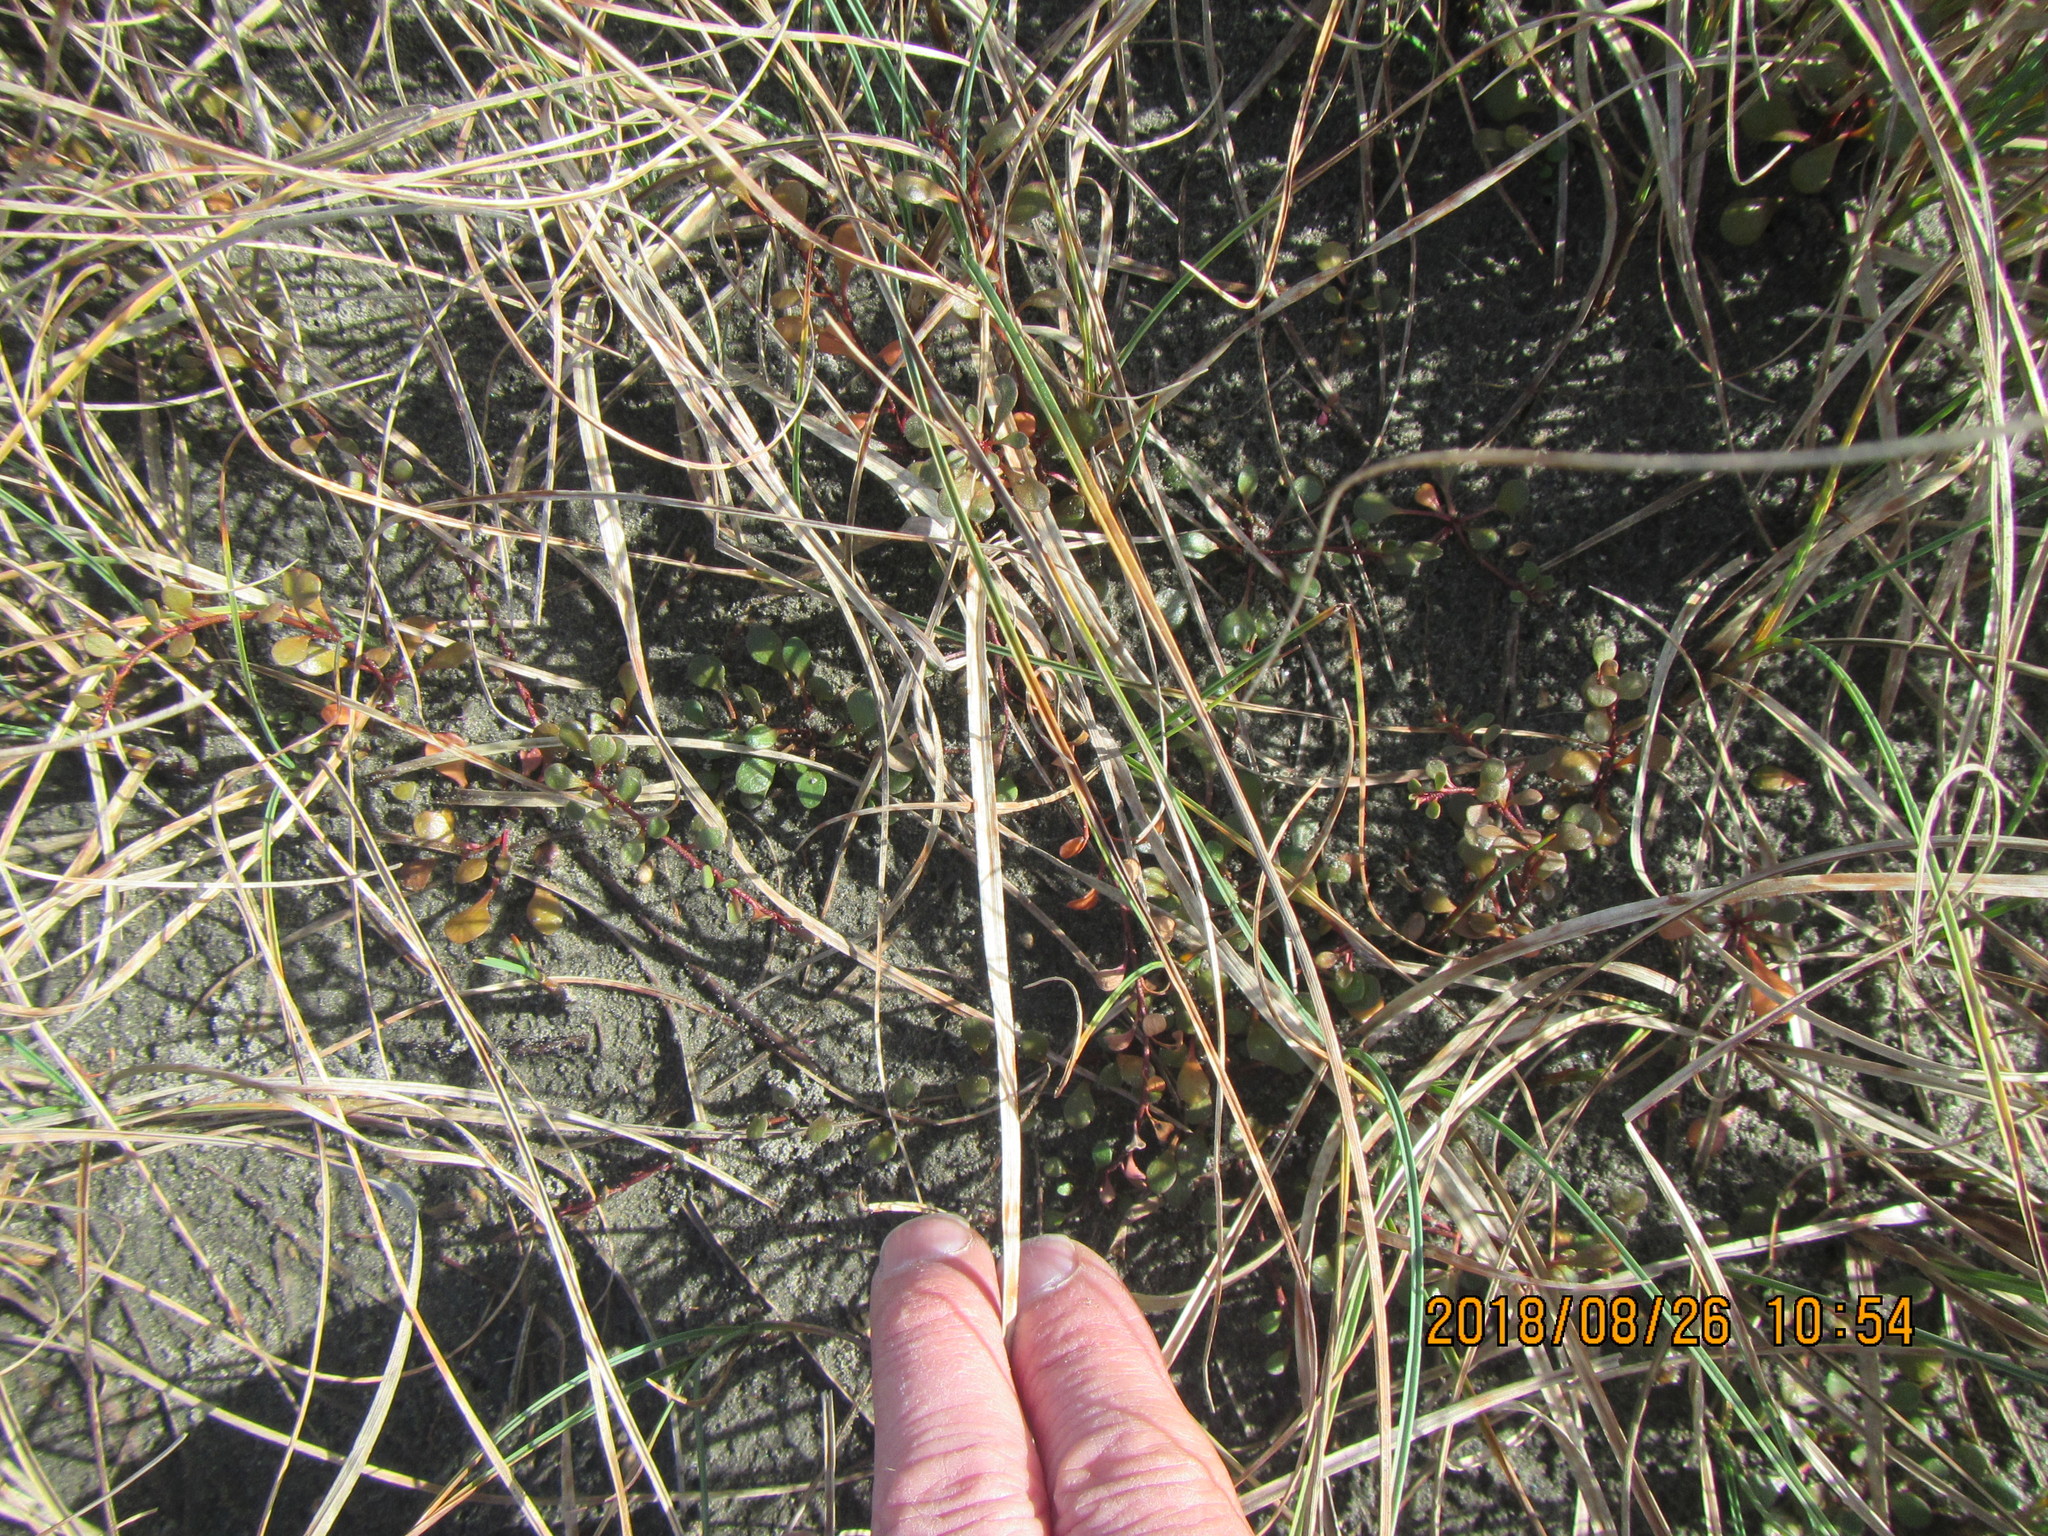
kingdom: Plantae
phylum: Tracheophyta
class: Magnoliopsida
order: Ericales
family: Primulaceae
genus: Samolus
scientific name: Samolus repens
